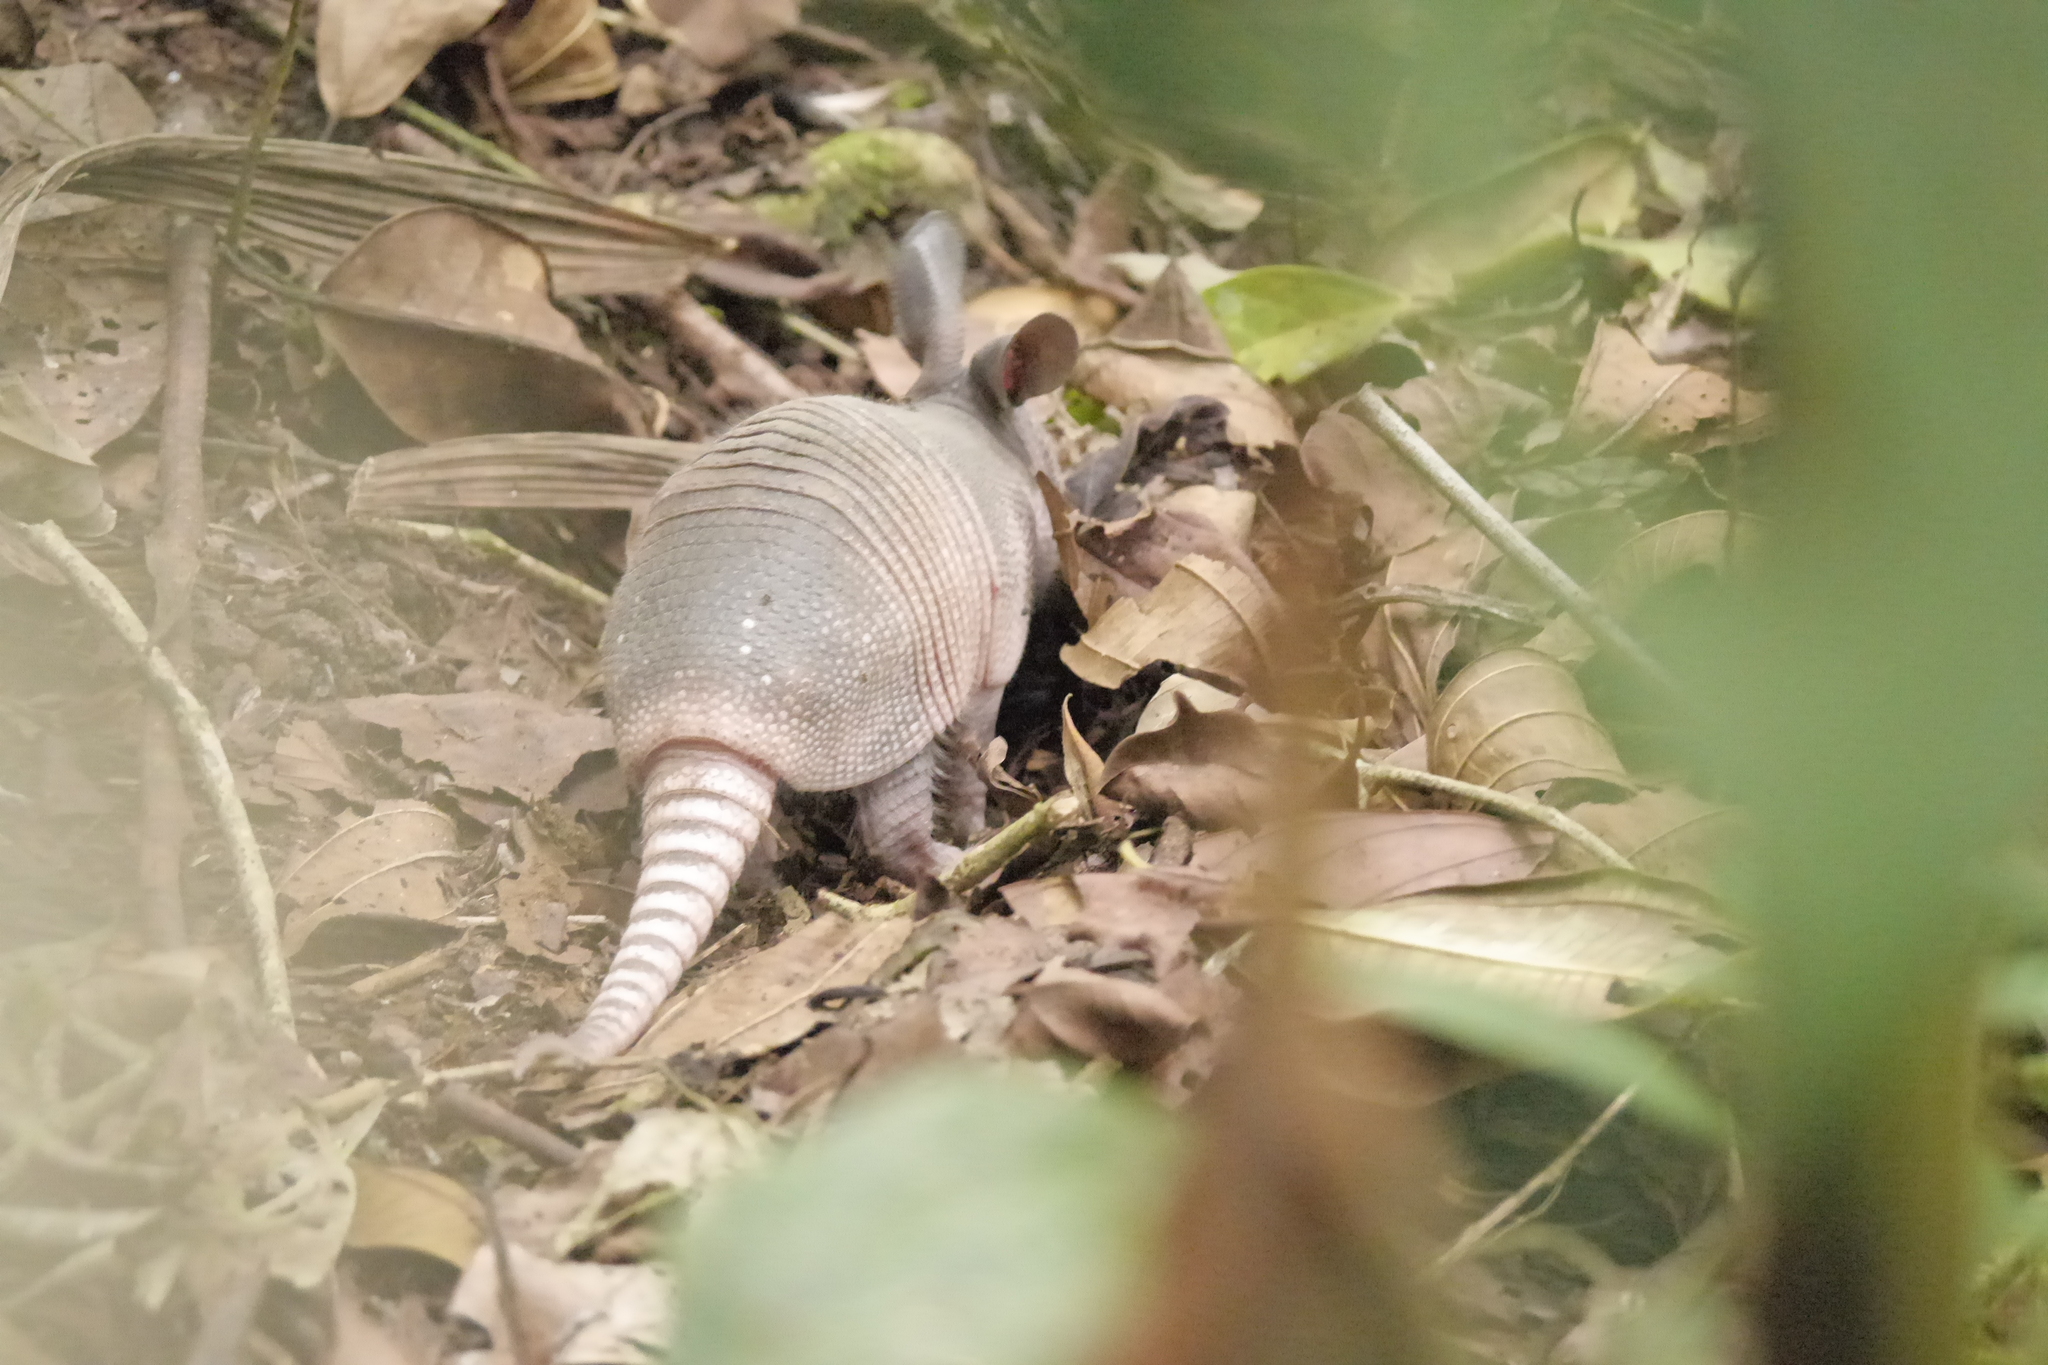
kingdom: Animalia
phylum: Chordata
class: Mammalia
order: Cingulata
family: Dasypodidae
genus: Dasypus
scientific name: Dasypus novemcinctus
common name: Nine-banded armadillo
